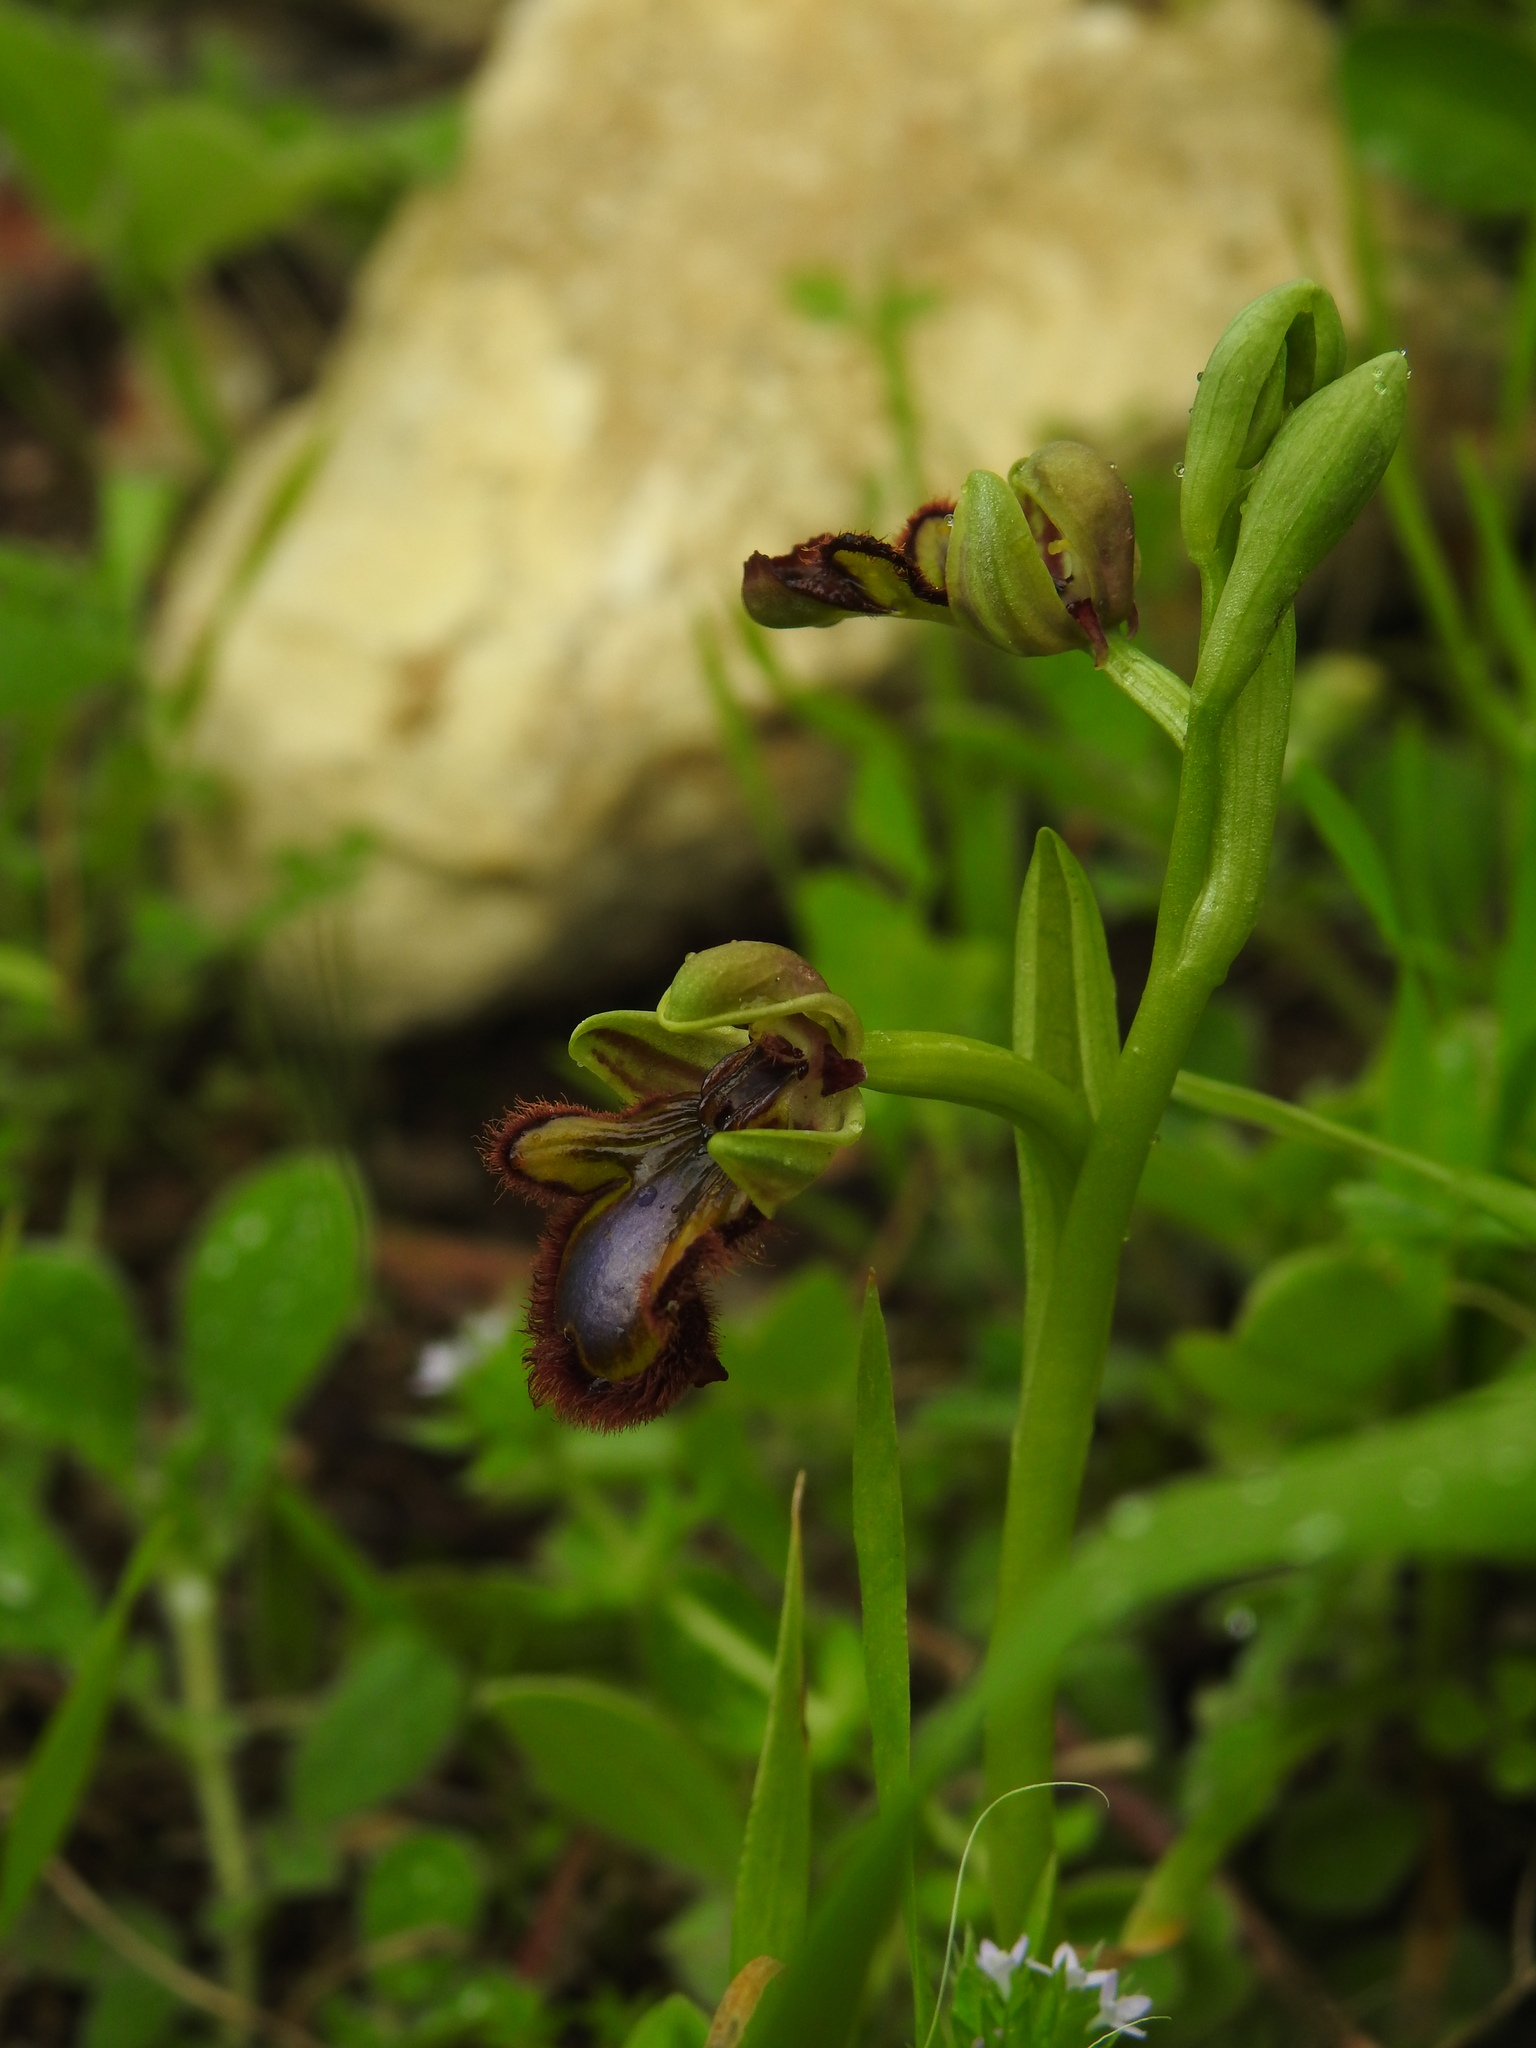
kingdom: Plantae
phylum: Tracheophyta
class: Liliopsida
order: Asparagales
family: Orchidaceae
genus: Ophrys
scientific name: Ophrys speculum
